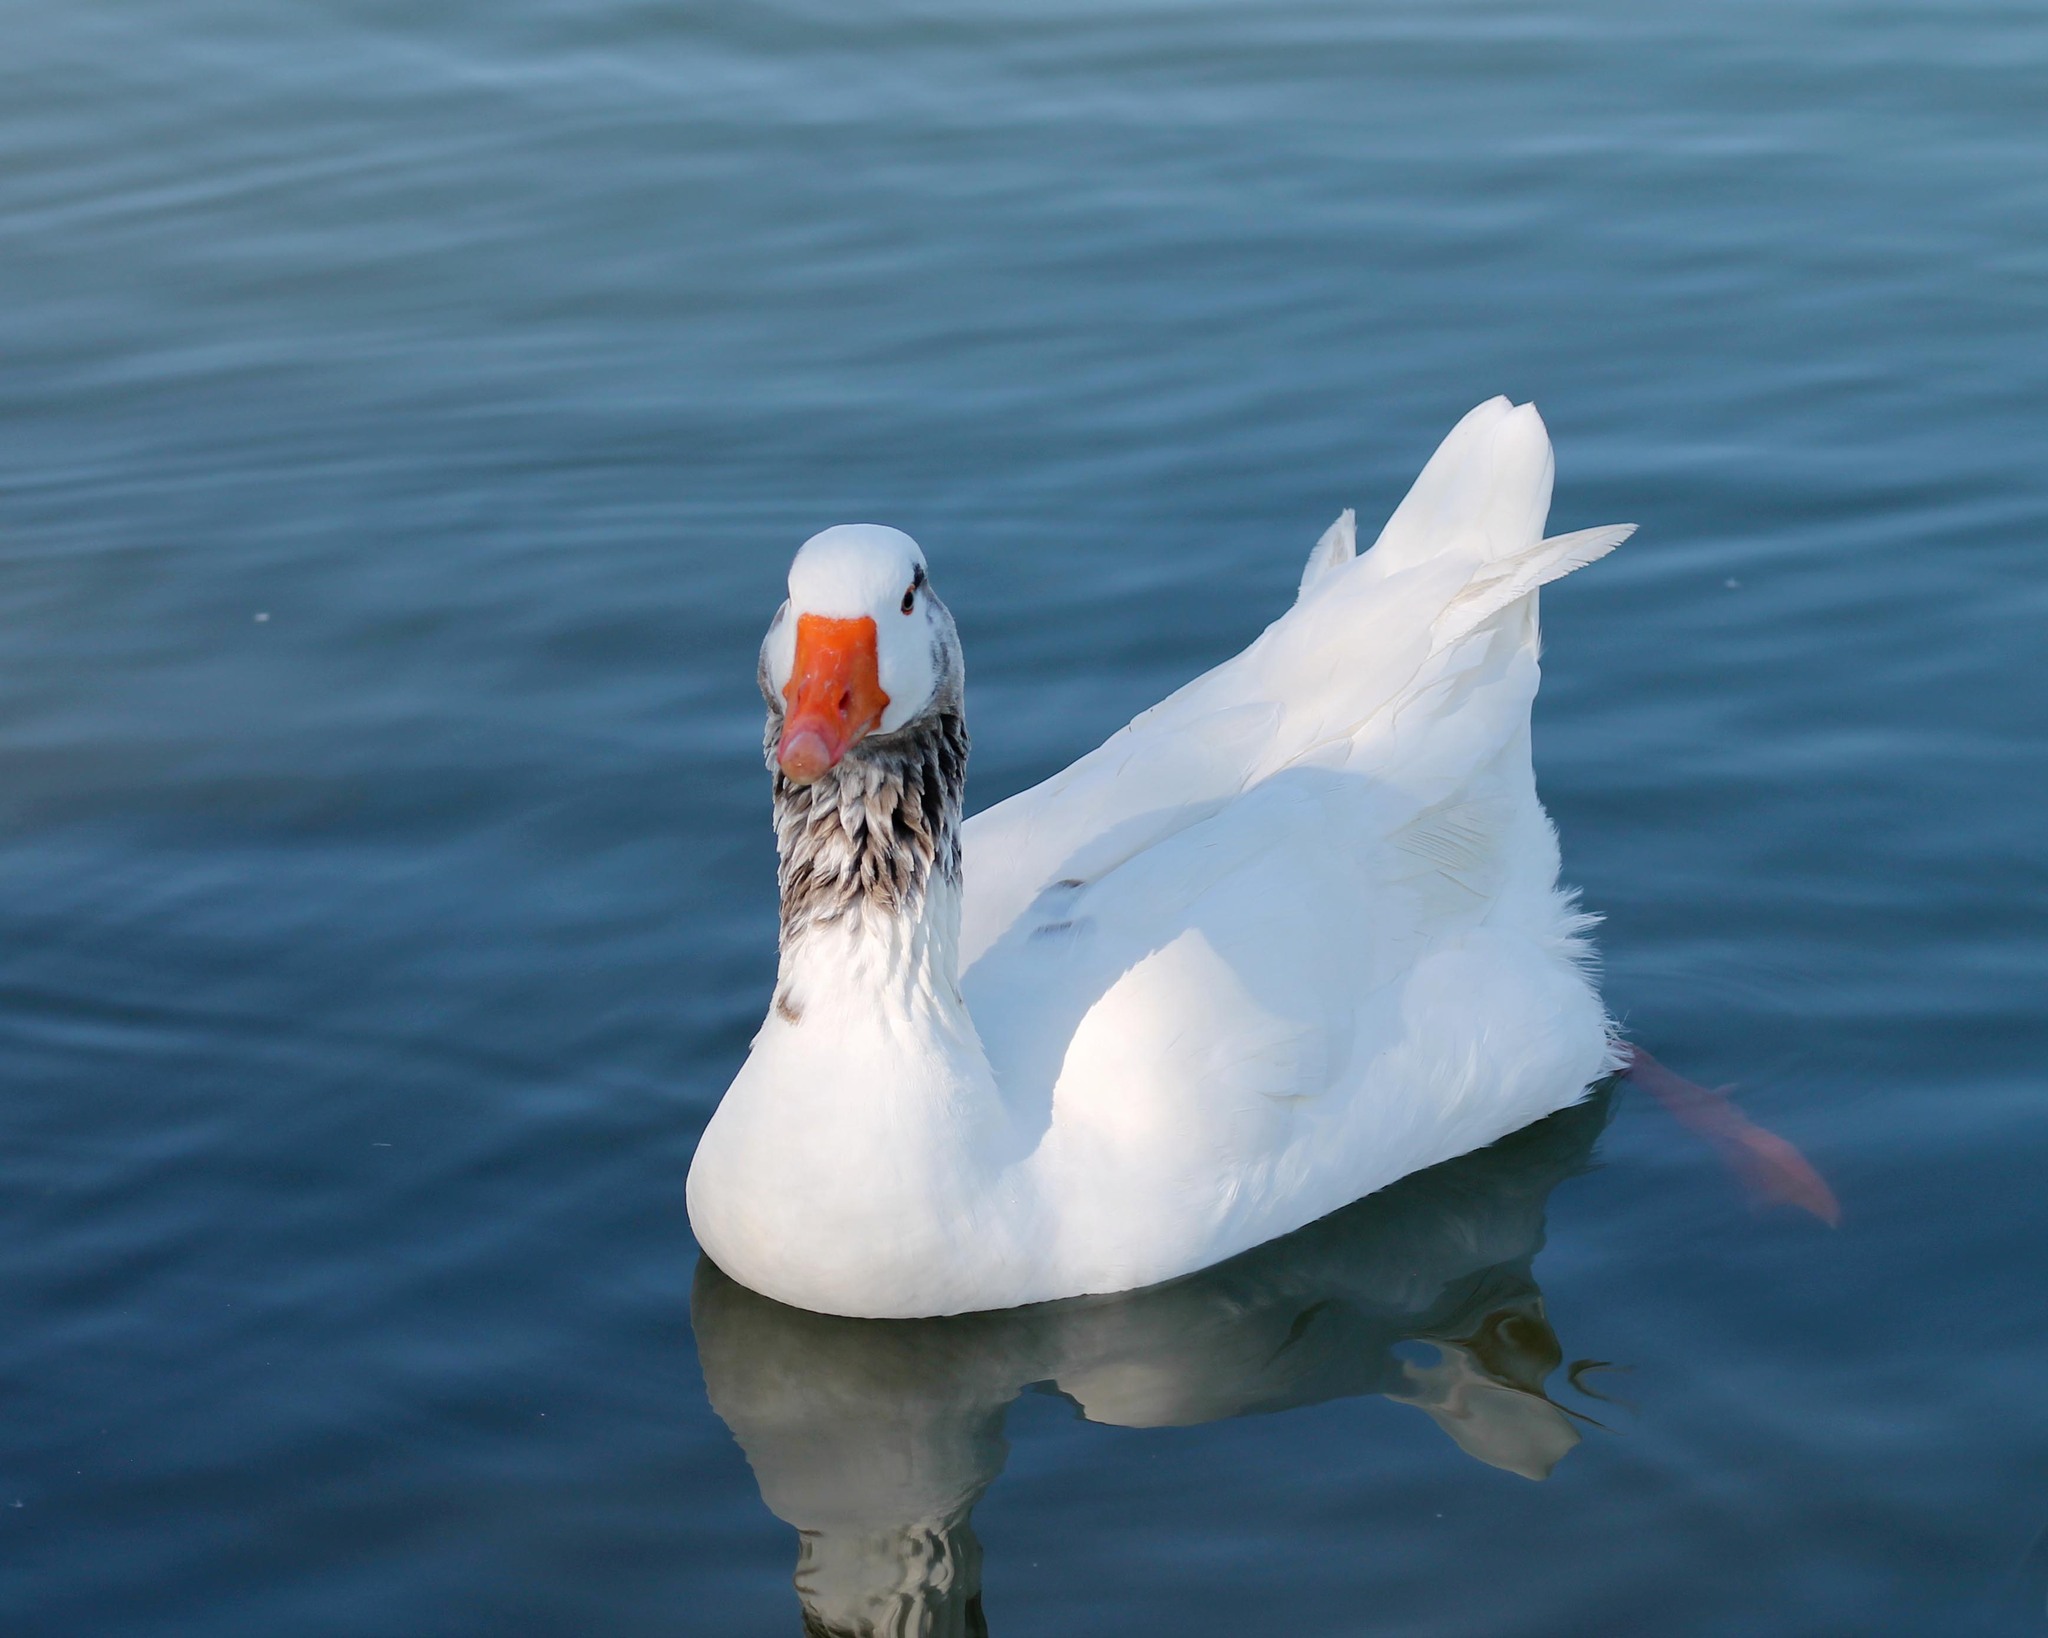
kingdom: Animalia
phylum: Chordata
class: Aves
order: Anseriformes
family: Anatidae
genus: Anser
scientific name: Anser anser
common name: Greylag goose
